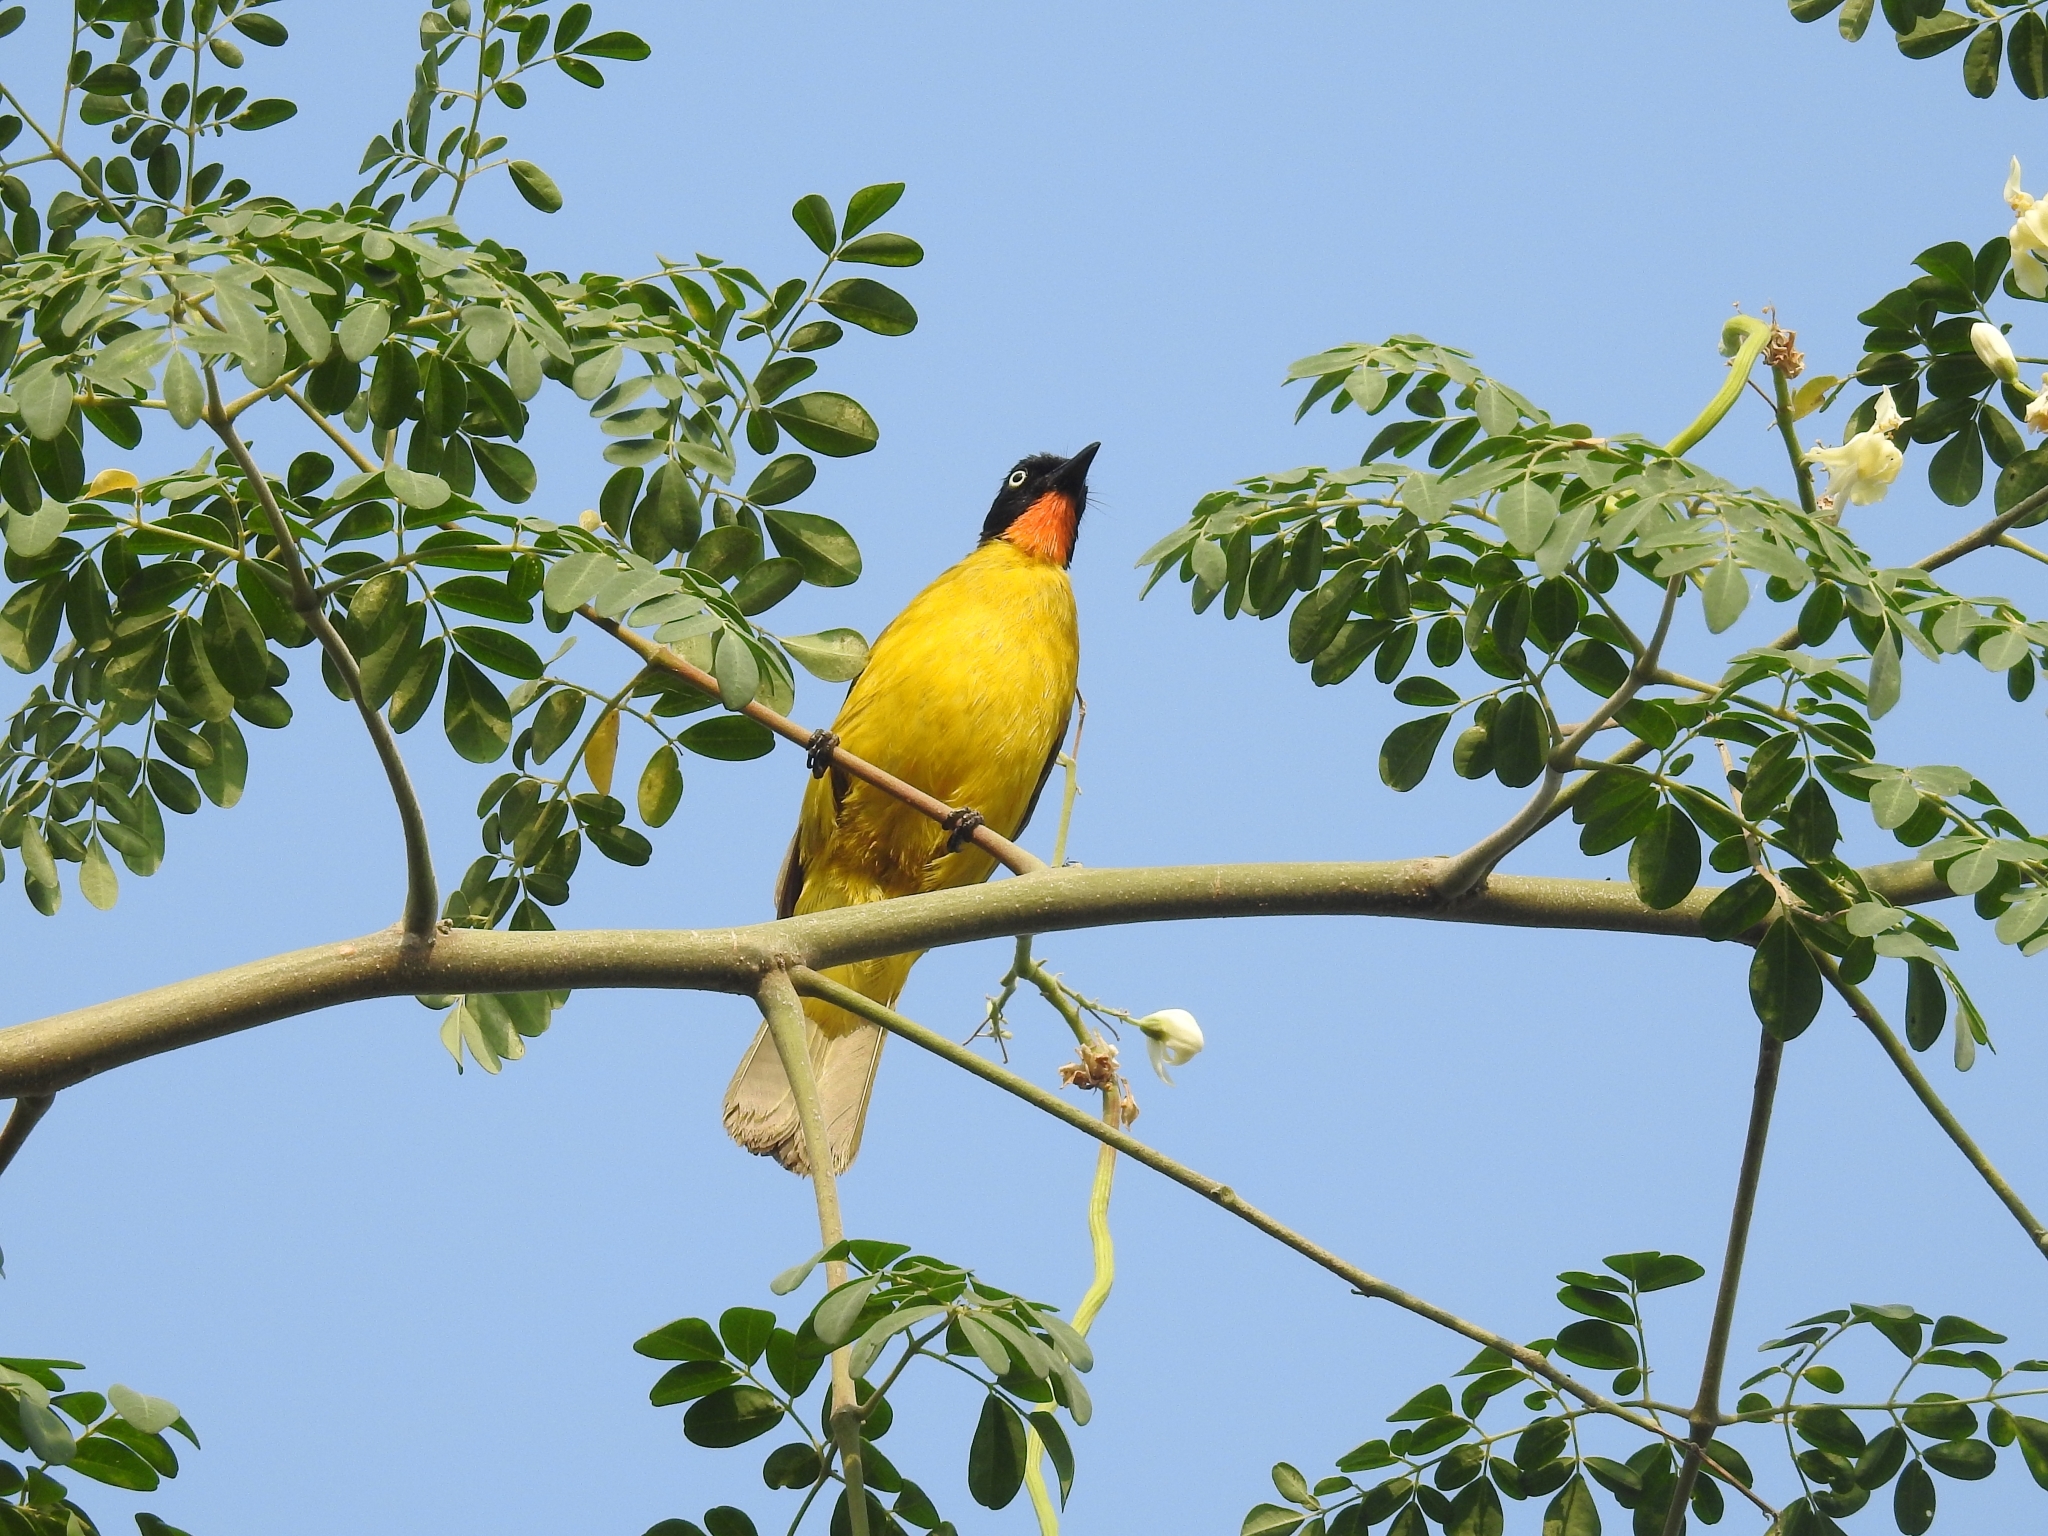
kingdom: Animalia
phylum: Chordata
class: Aves
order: Passeriformes
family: Pycnonotidae
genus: Pycnonotus
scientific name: Pycnonotus gularis
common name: Flame-throated bulbul
